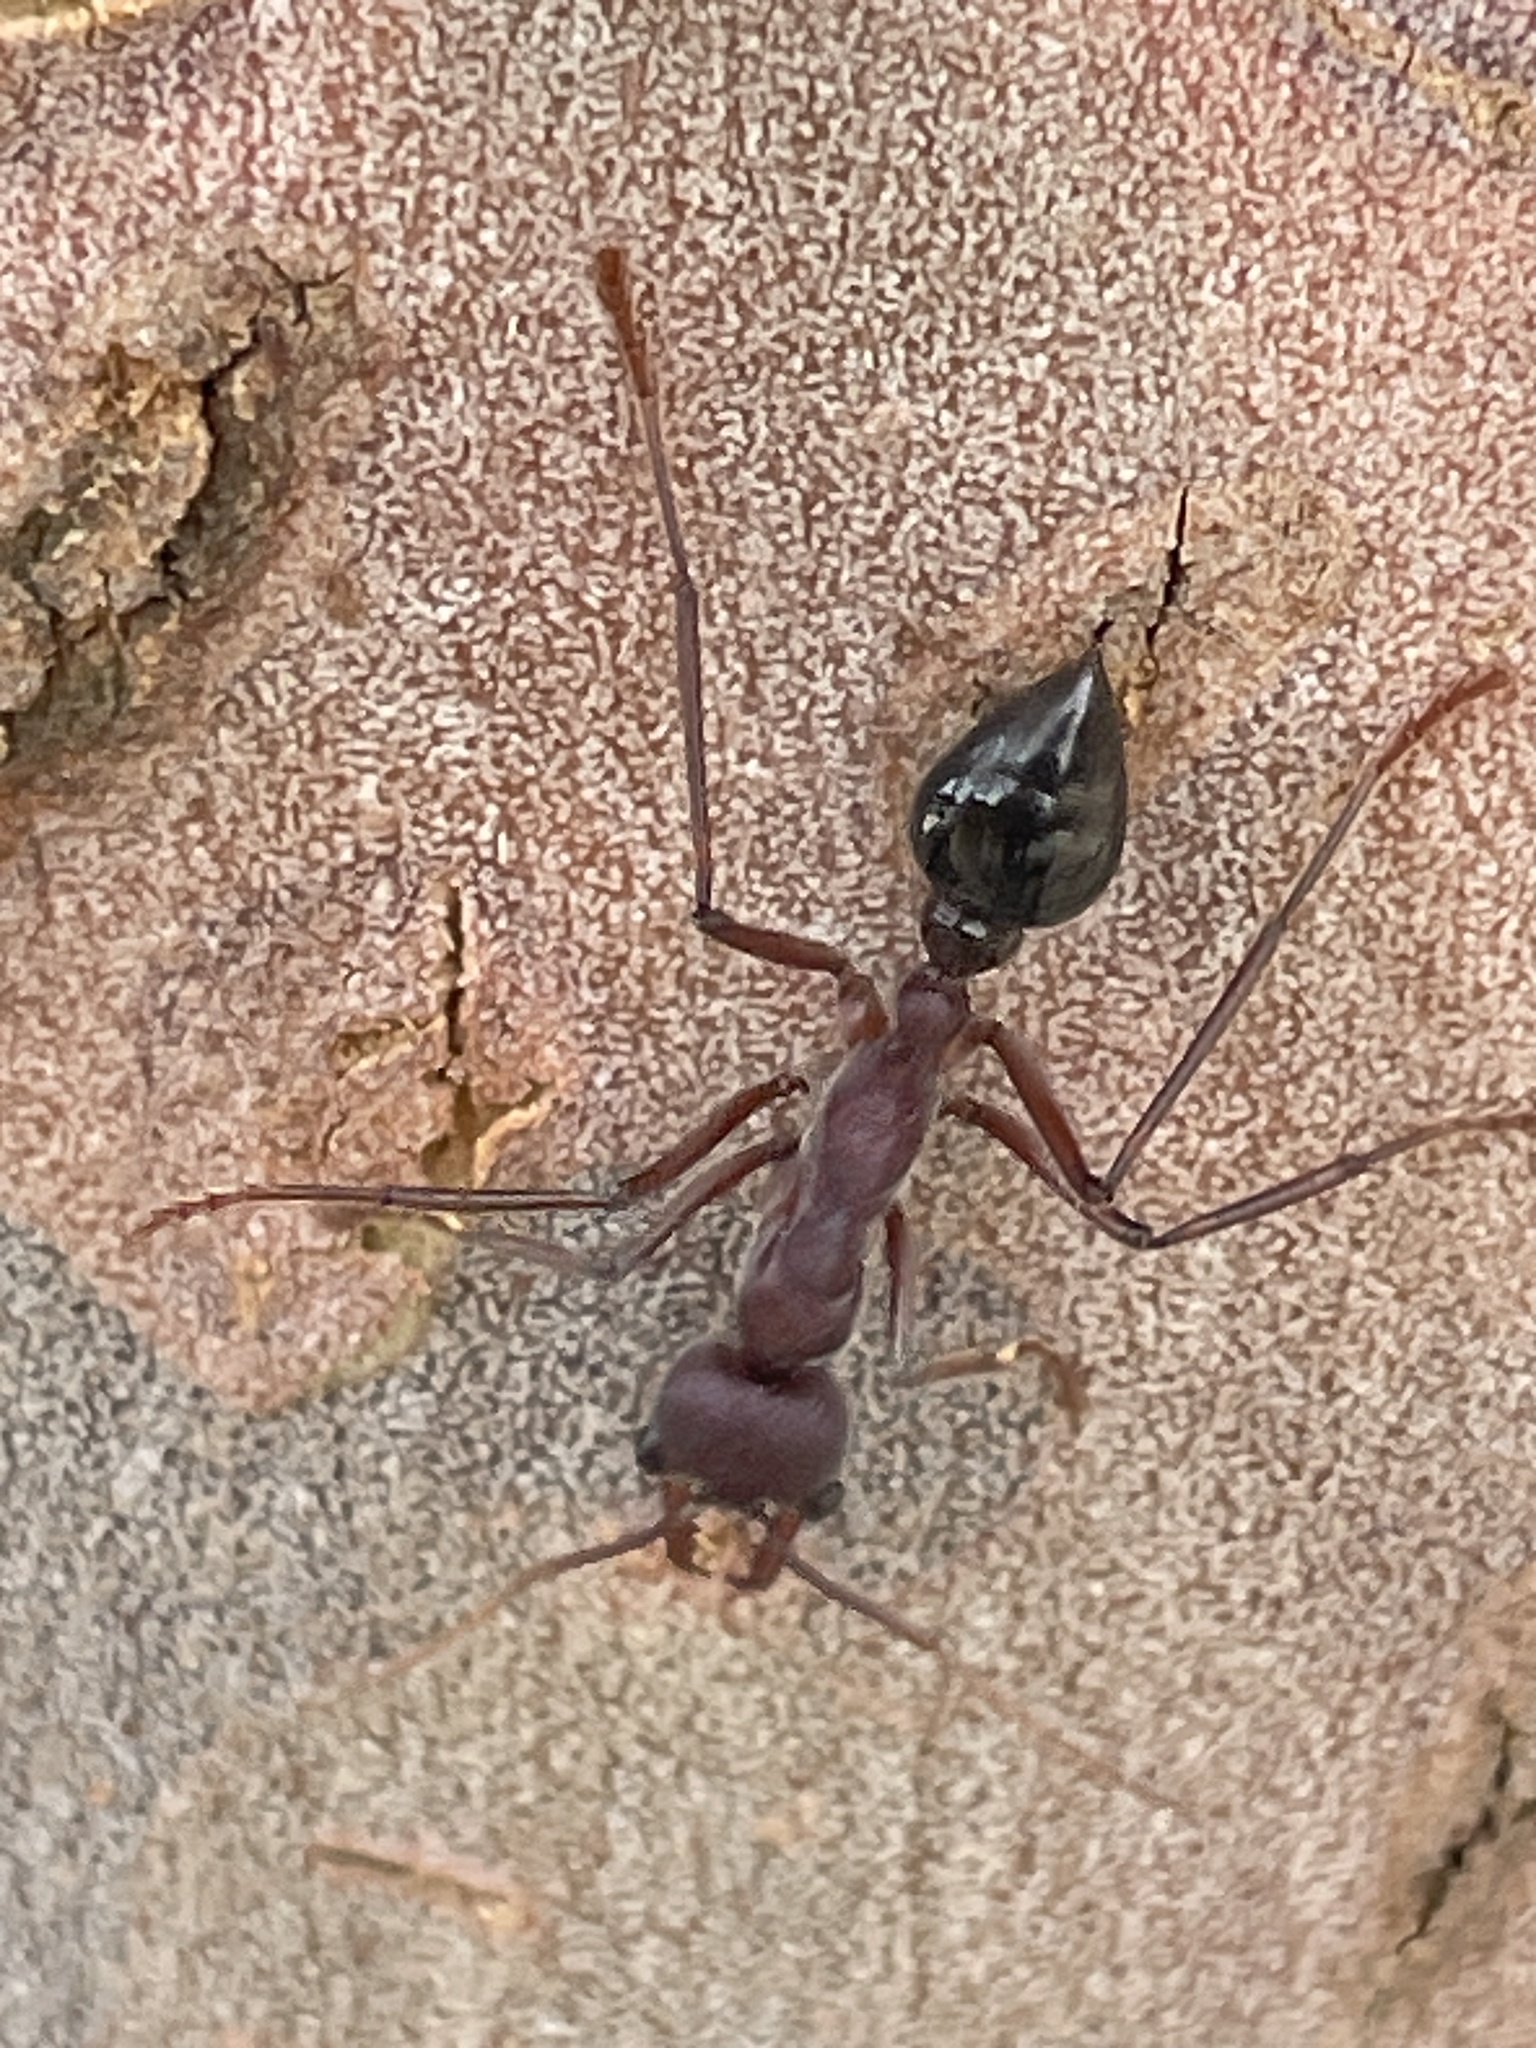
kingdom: Animalia
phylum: Arthropoda
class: Insecta
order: Hymenoptera
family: Formicidae
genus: Myrmecia
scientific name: Myrmecia simillima
